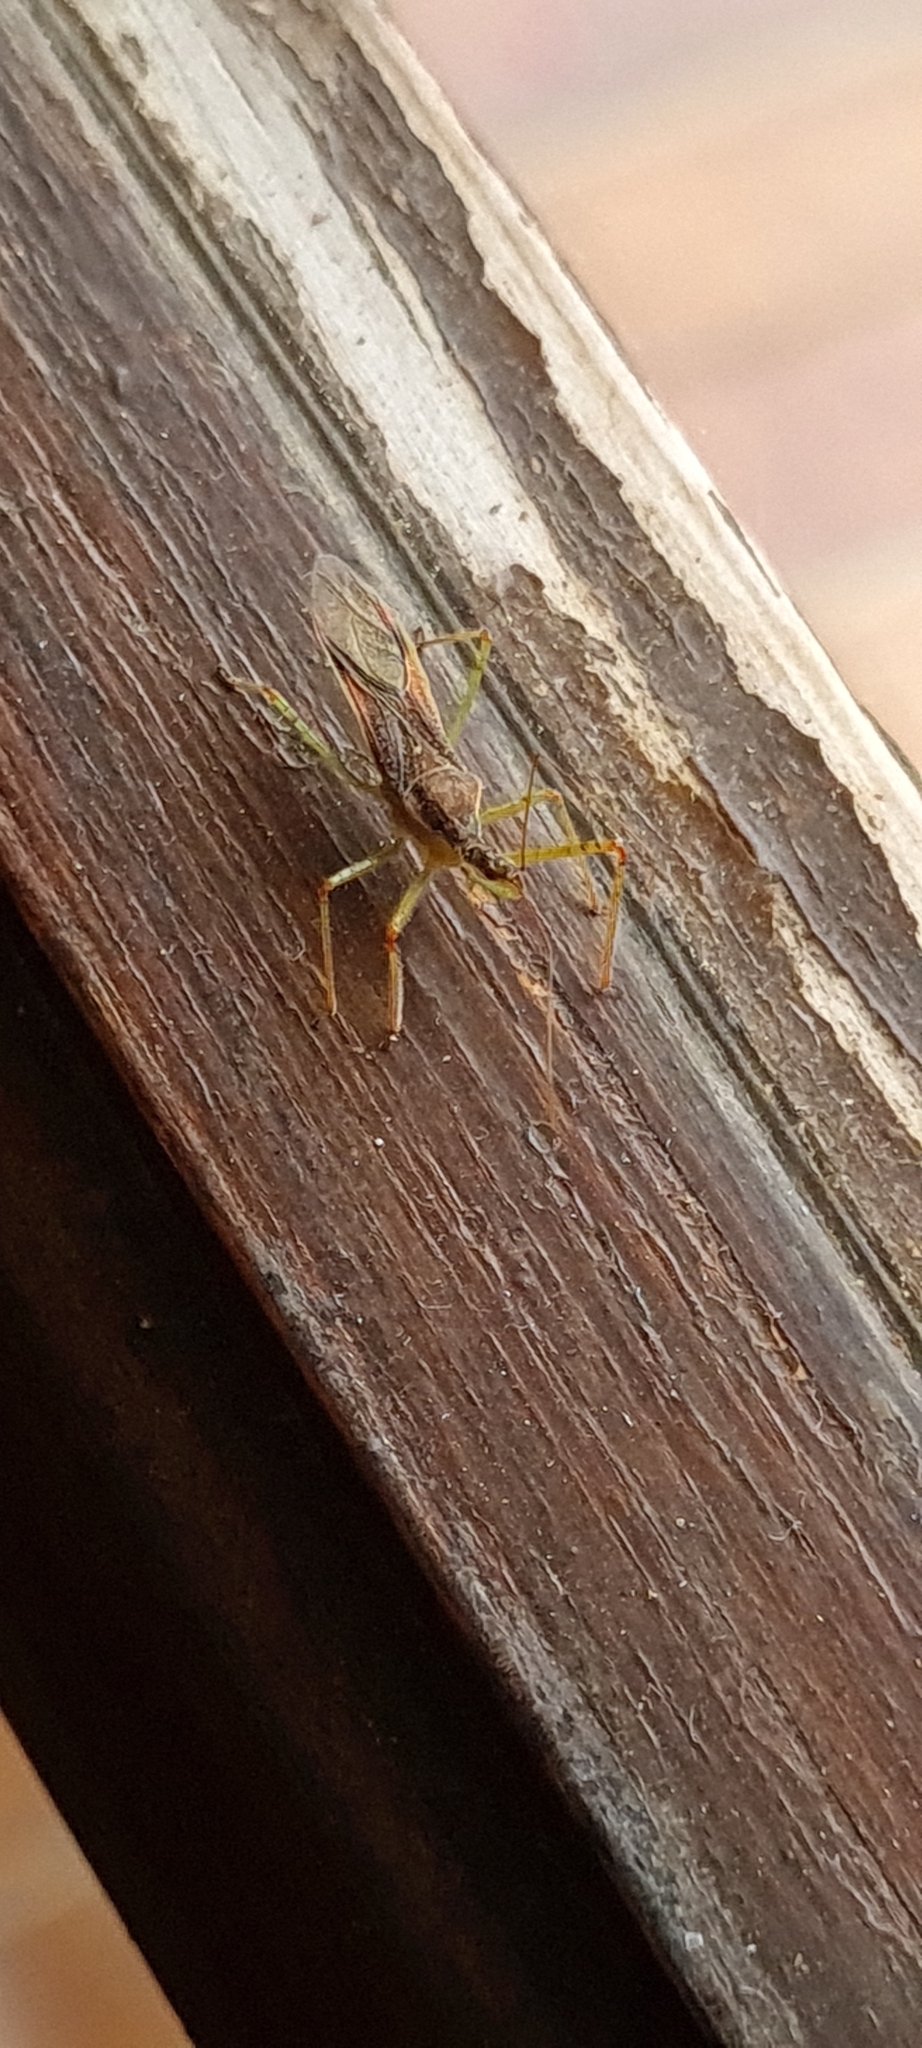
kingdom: Animalia
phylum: Arthropoda
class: Insecta
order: Hemiptera
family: Reduviidae
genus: Zelus
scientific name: Zelus renardii
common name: Assassin bug
